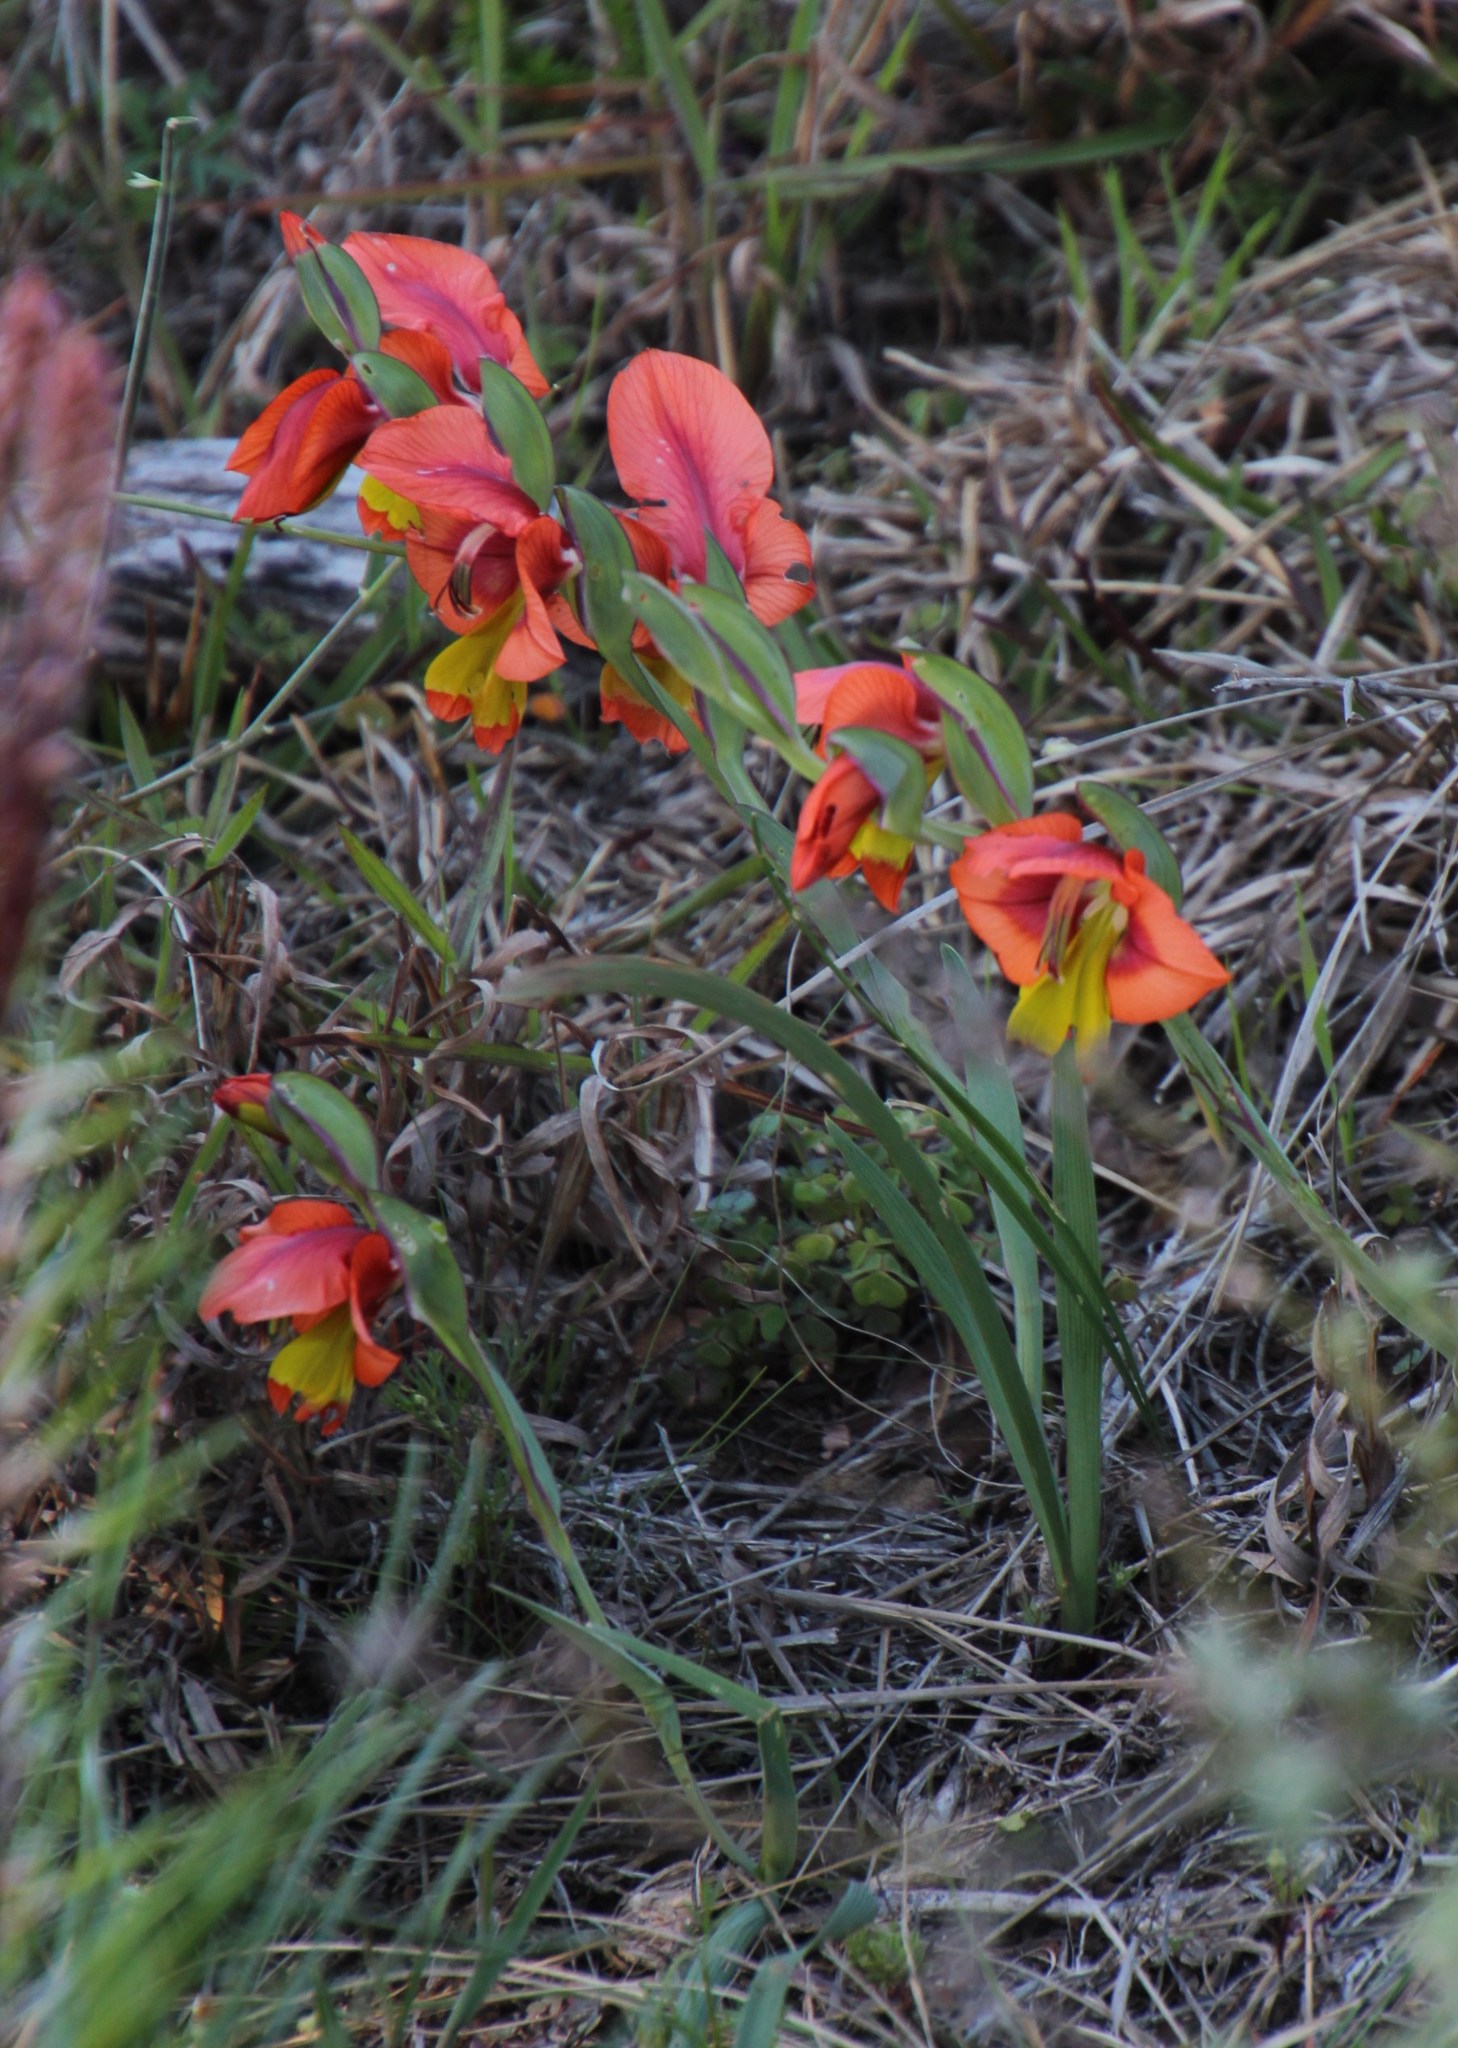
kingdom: Plantae
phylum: Tracheophyta
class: Liliopsida
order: Asparagales
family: Iridaceae
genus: Gladiolus
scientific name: Gladiolus alatus
